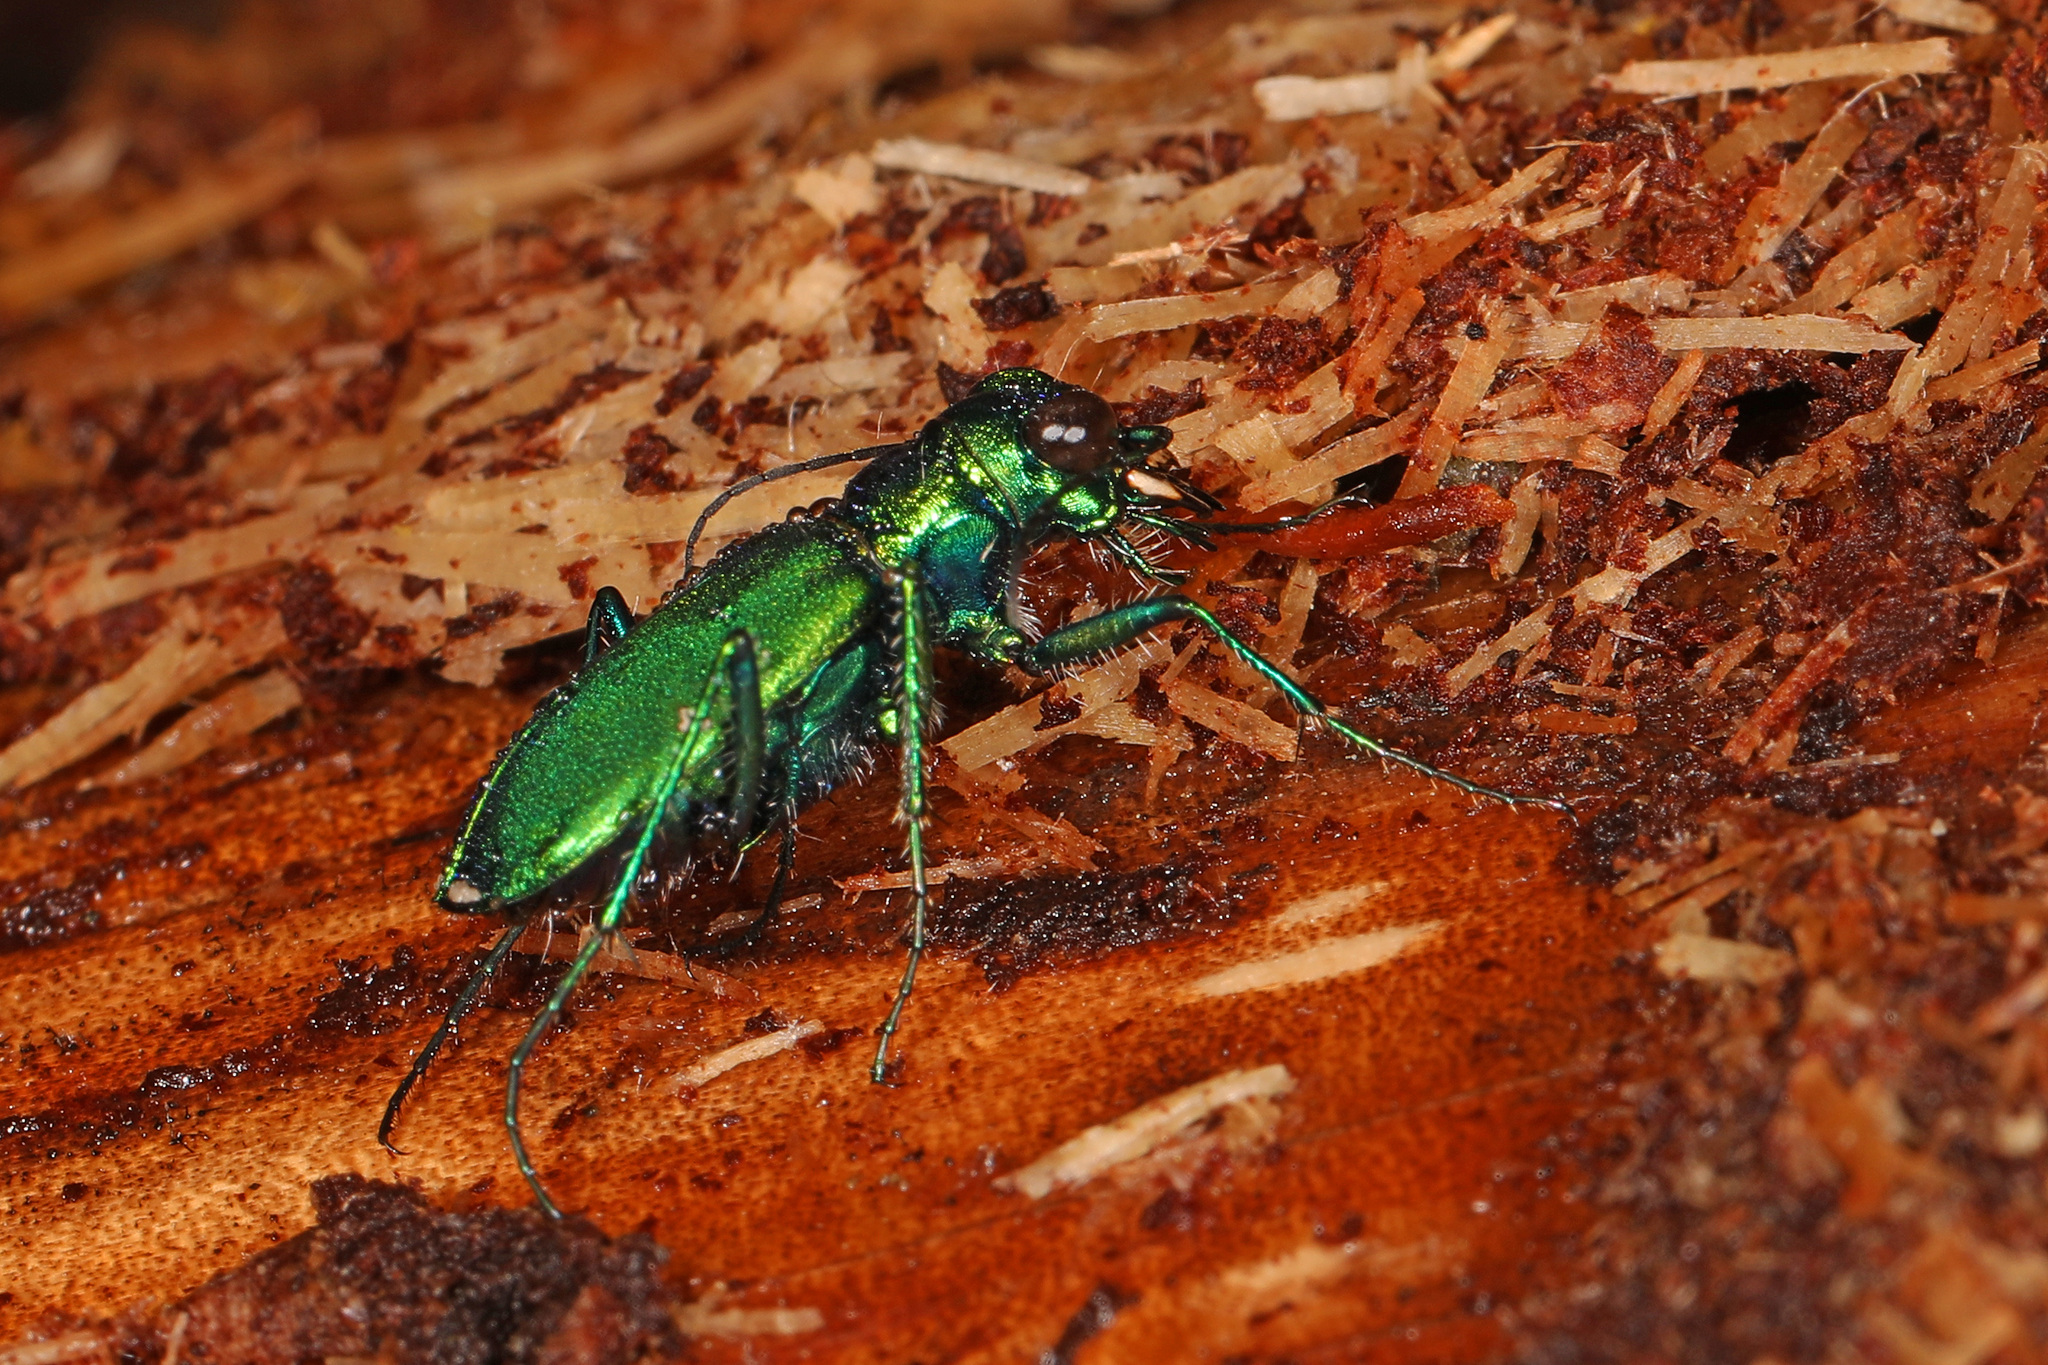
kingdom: Animalia
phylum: Arthropoda
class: Insecta
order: Coleoptera
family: Carabidae
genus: Cicindela
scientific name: Cicindela sexguttata
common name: Six-spotted tiger beetle
